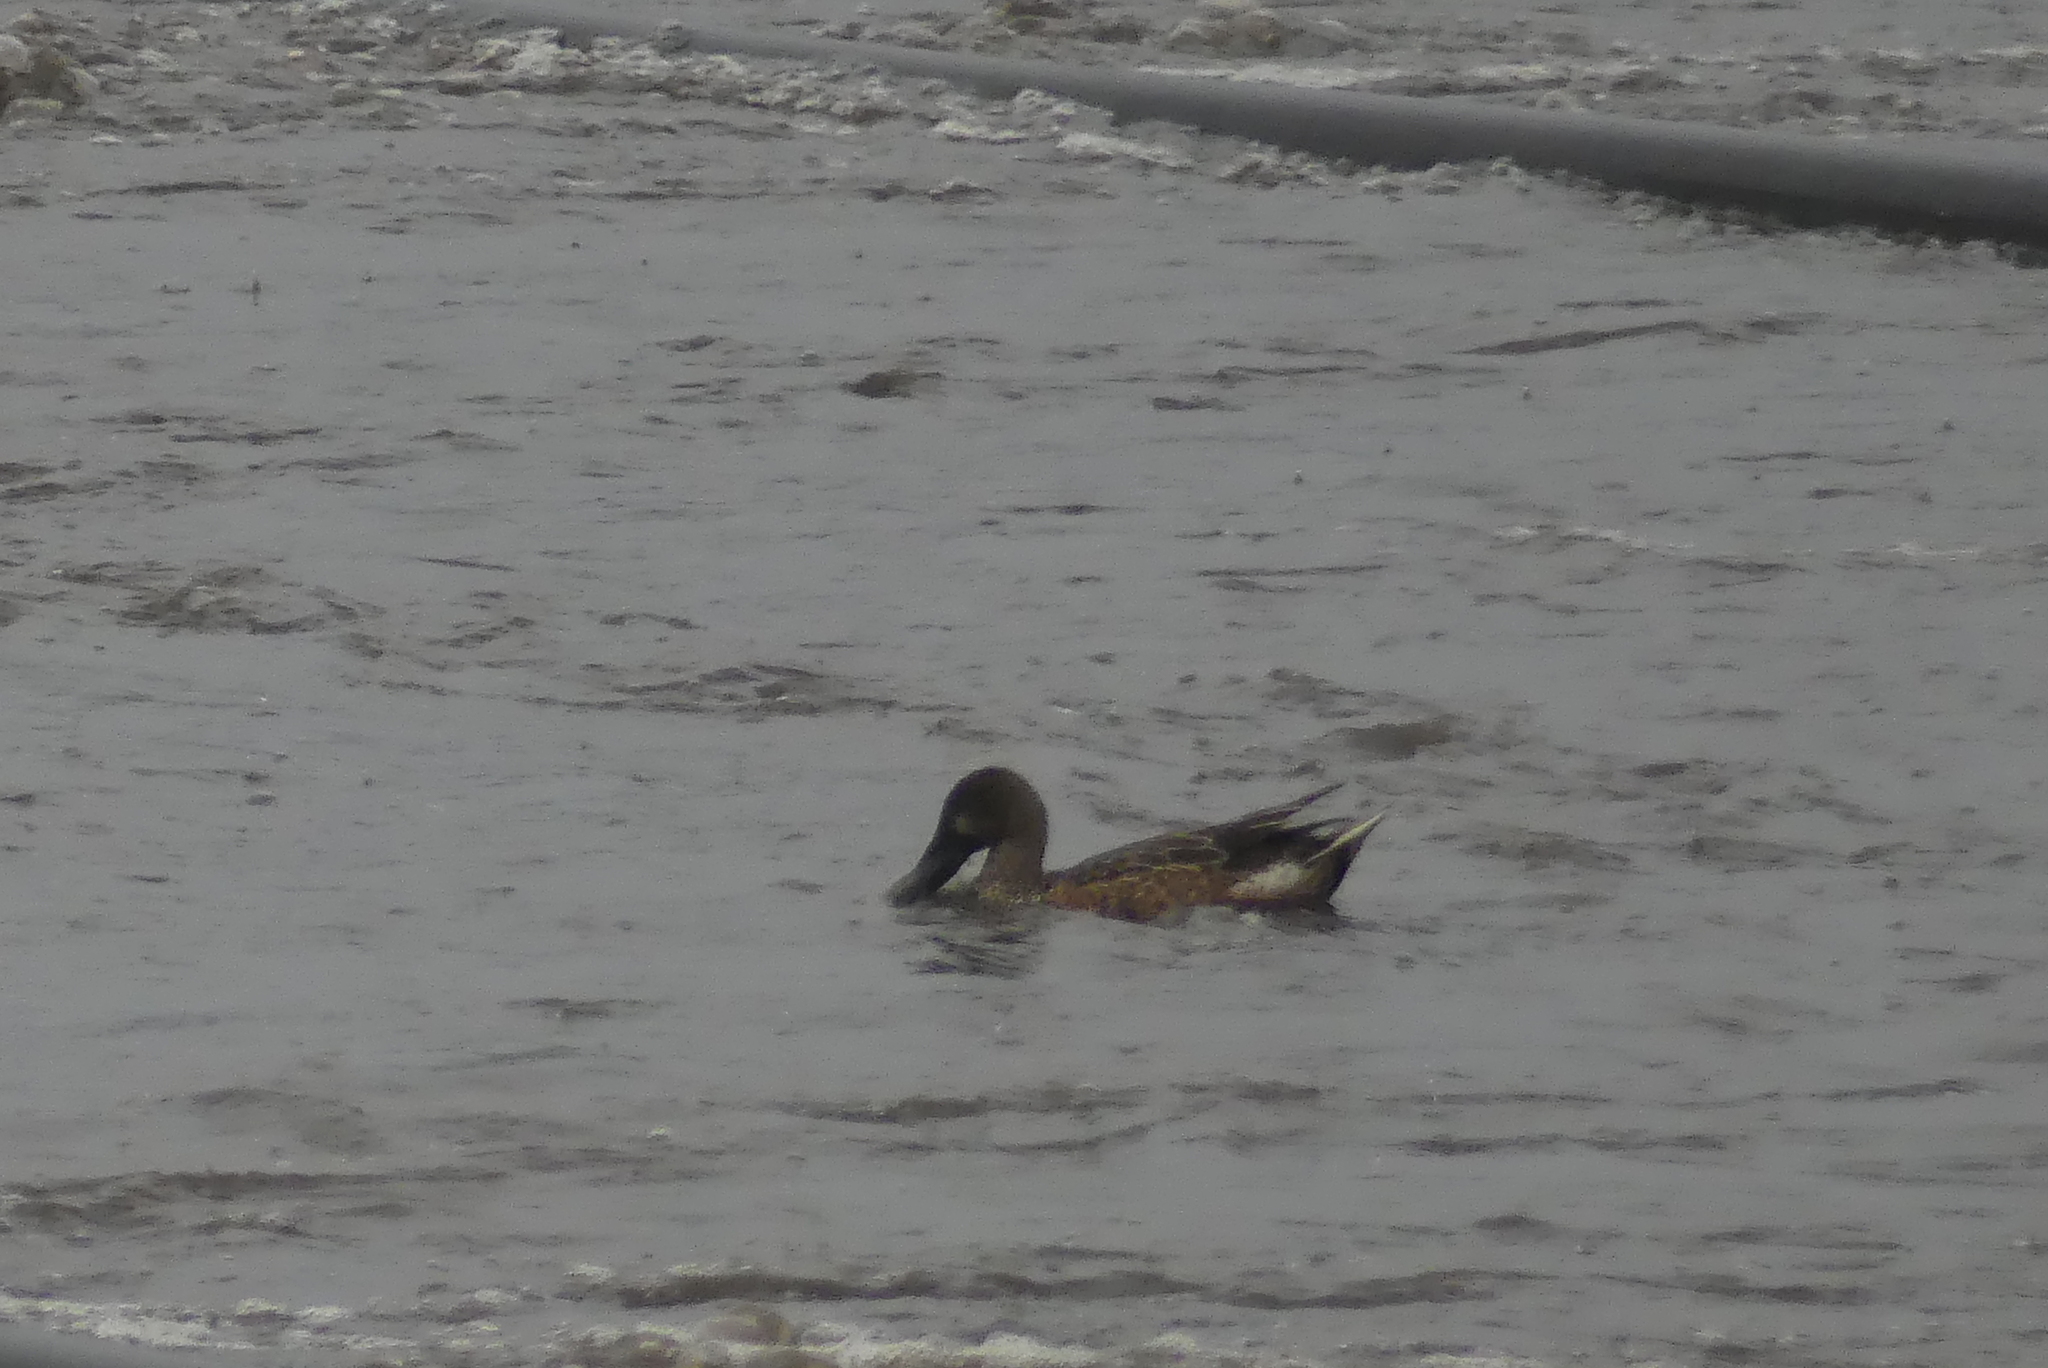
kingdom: Animalia
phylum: Chordata
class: Aves
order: Anseriformes
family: Anatidae
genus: Spatula
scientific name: Spatula clypeata
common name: Northern shoveler
